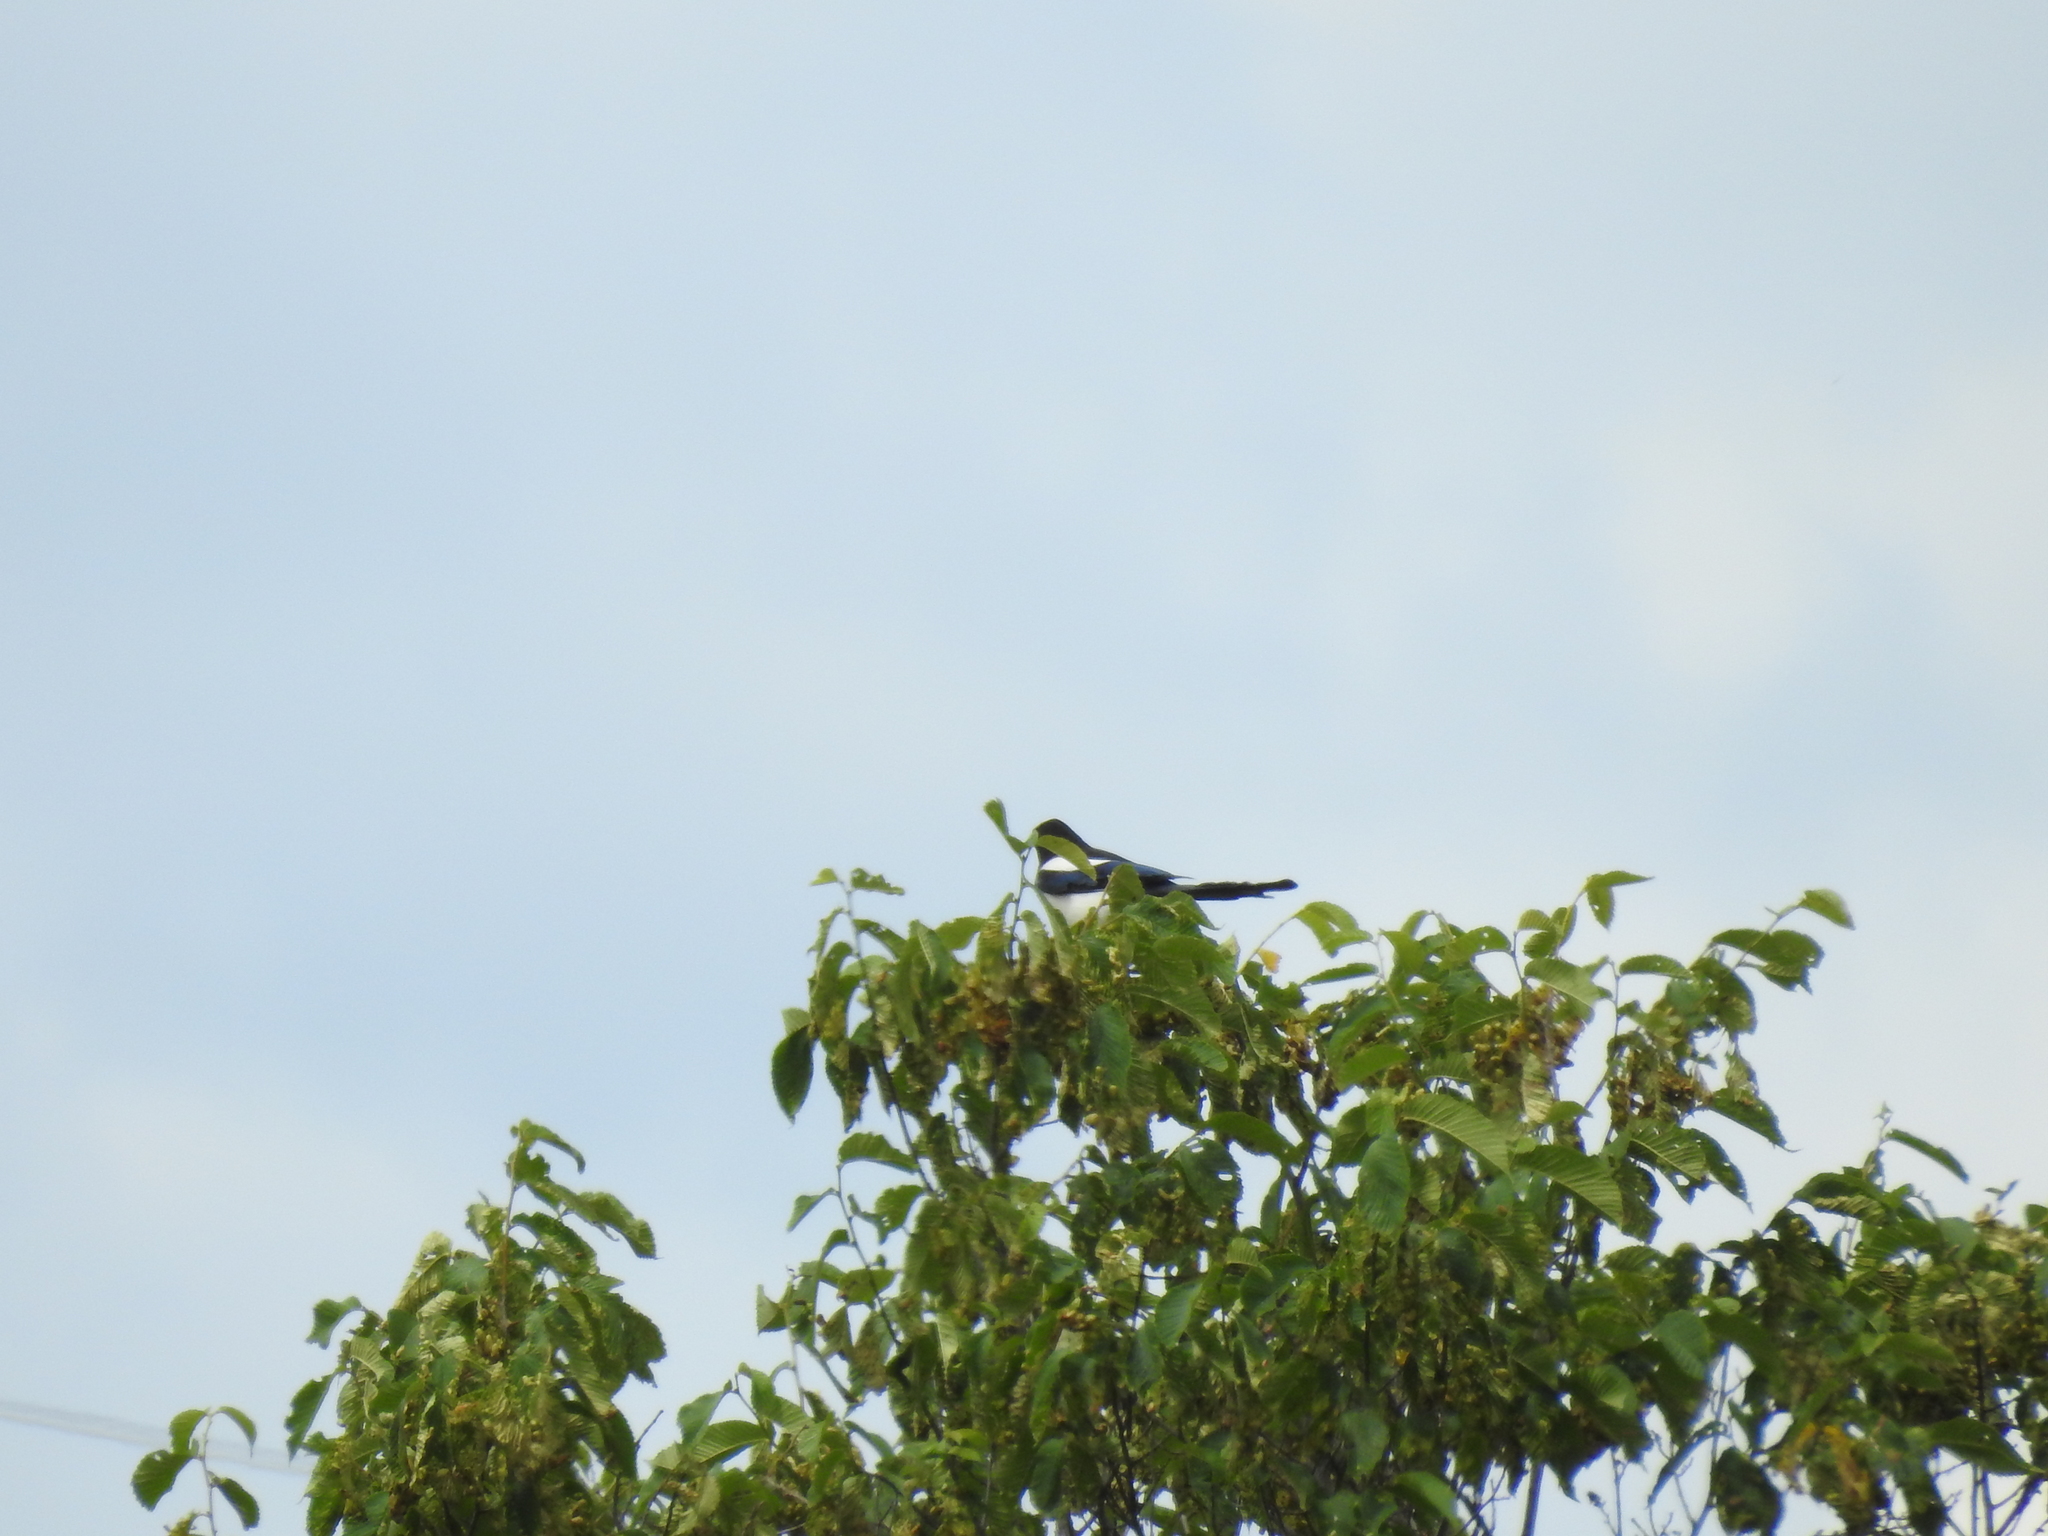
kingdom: Animalia
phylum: Chordata
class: Aves
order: Passeriformes
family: Corvidae
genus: Pica
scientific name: Pica pica
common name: Eurasian magpie
